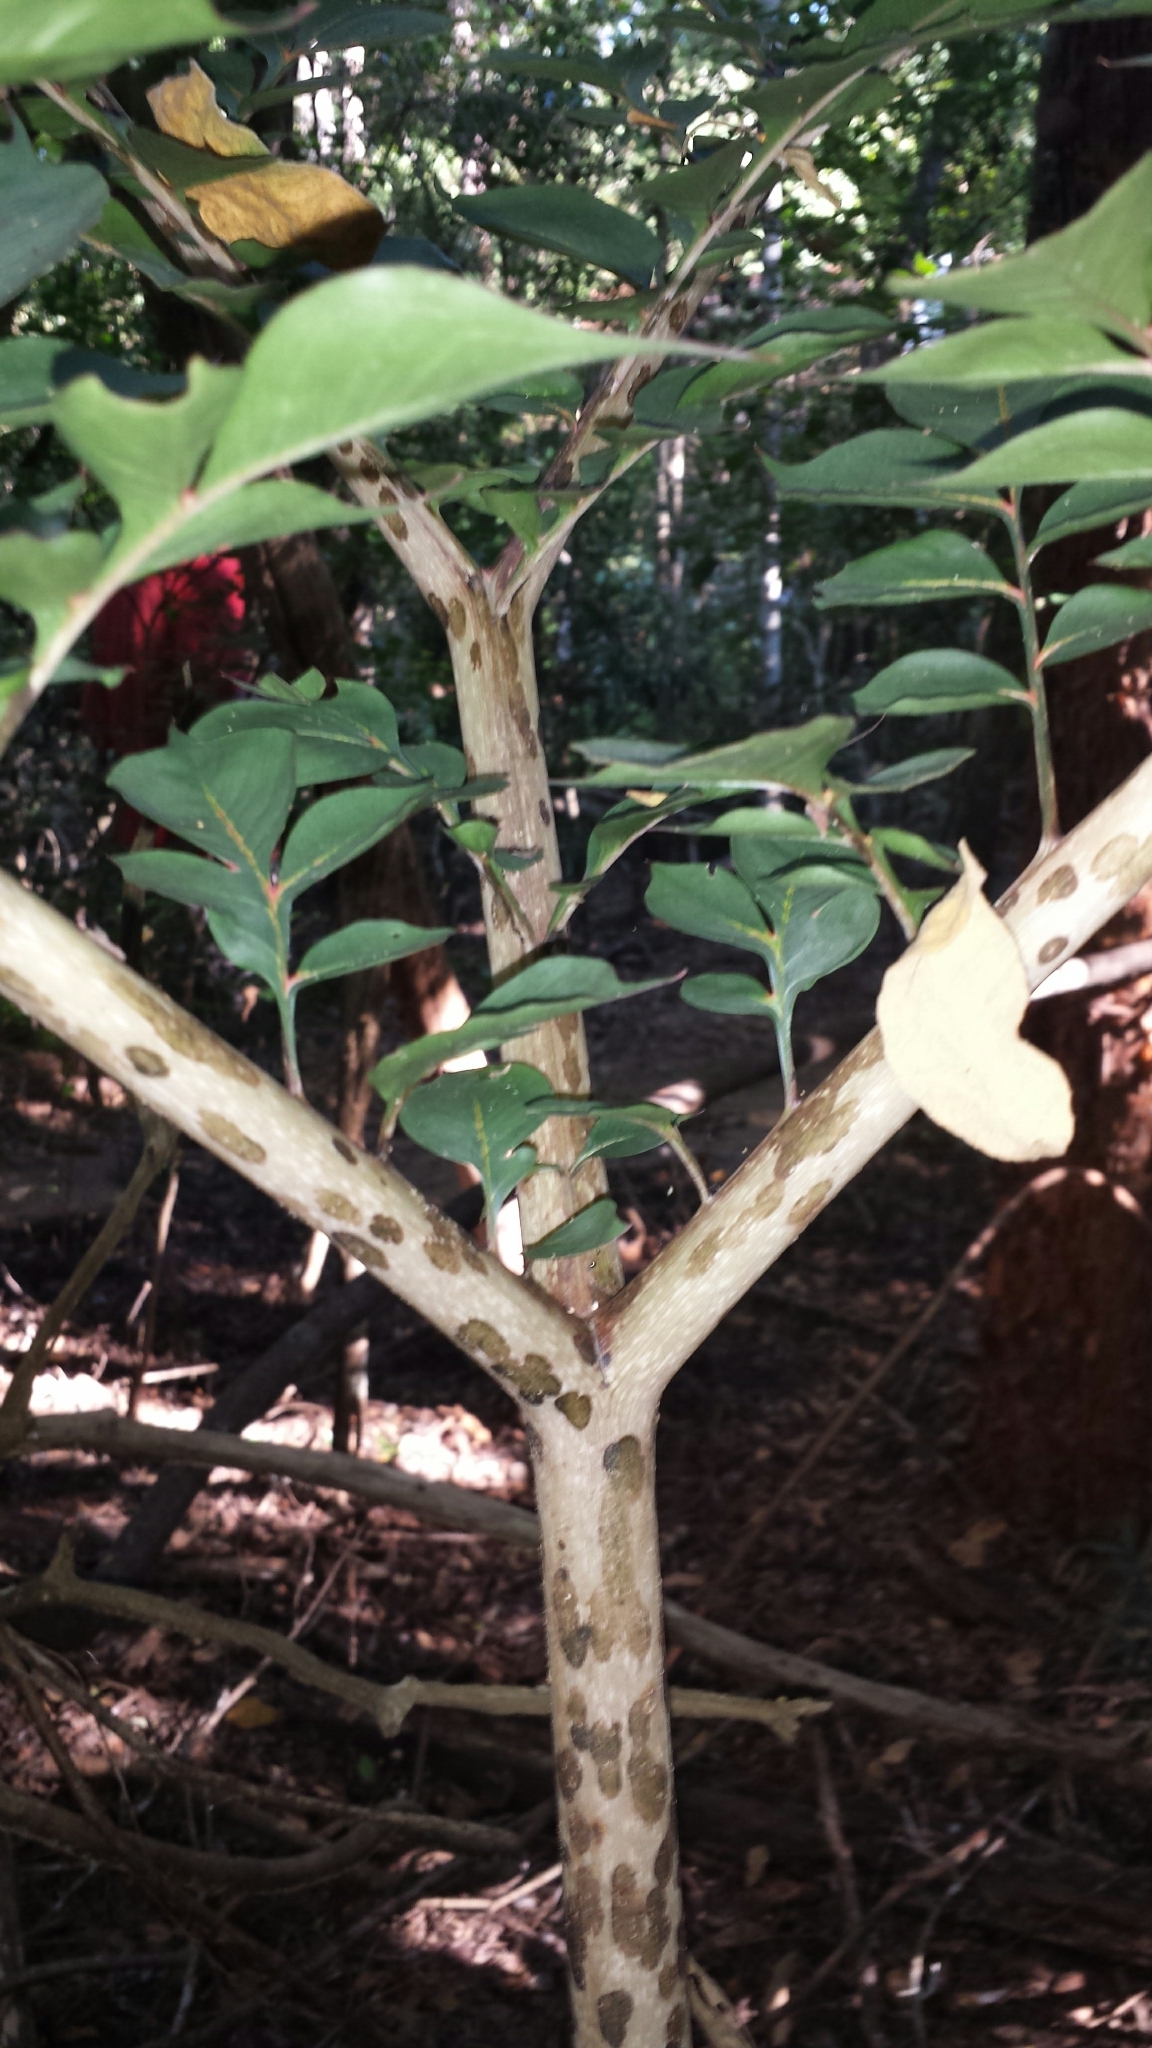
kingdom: Plantae
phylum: Tracheophyta
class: Liliopsida
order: Alismatales
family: Araceae
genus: Amorphophallus
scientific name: Amorphophallus hildebrandtii
